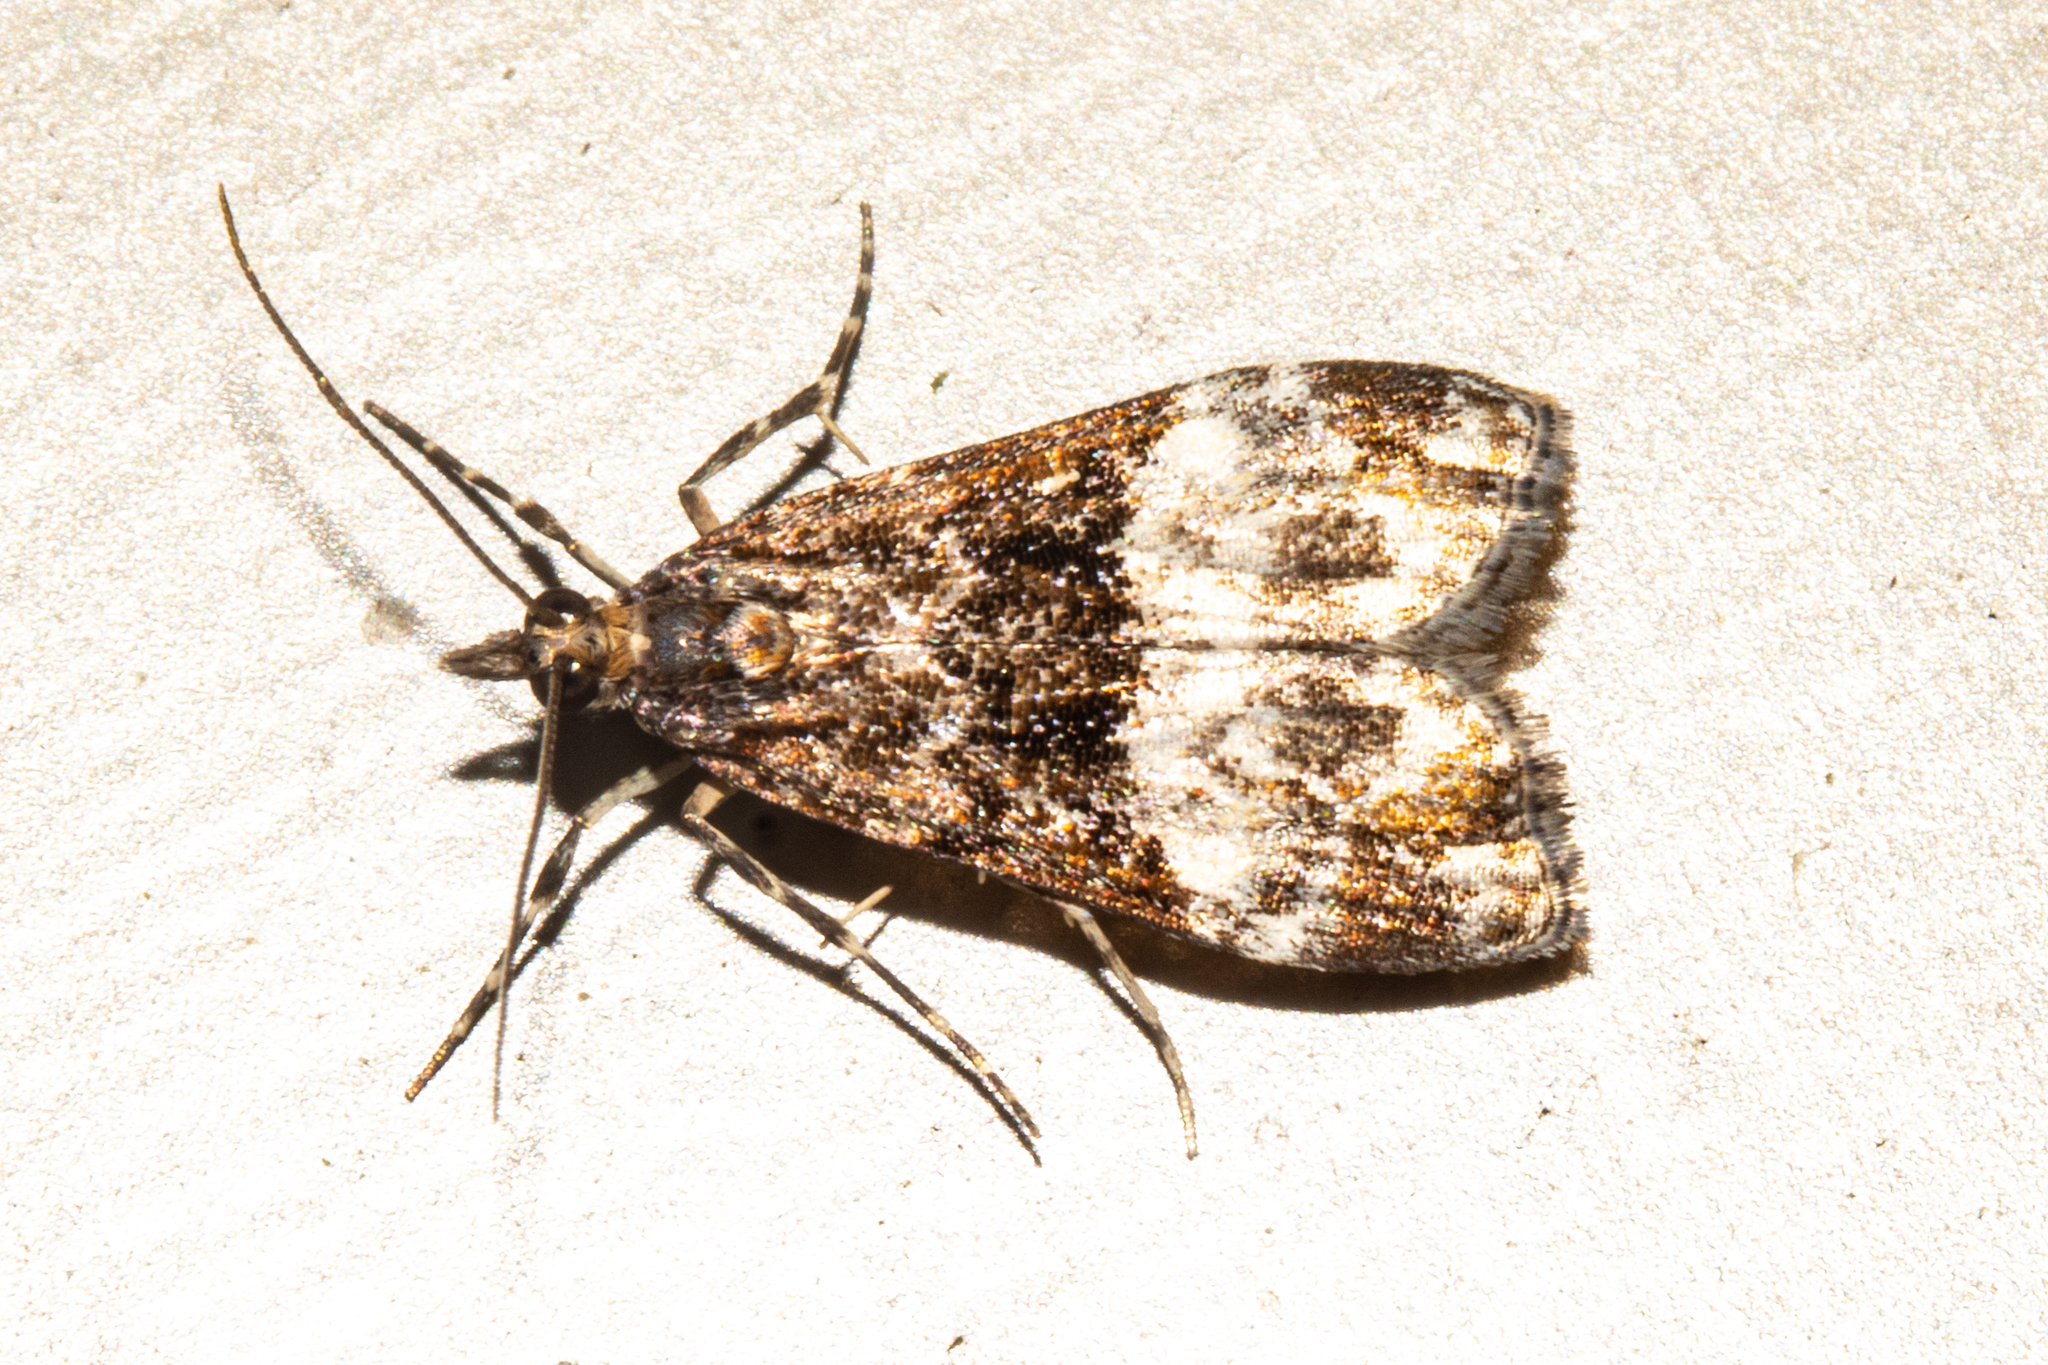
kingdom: Animalia
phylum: Arthropoda
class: Insecta
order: Lepidoptera
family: Crambidae
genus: Scoparia
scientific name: Scoparia minusculalis
